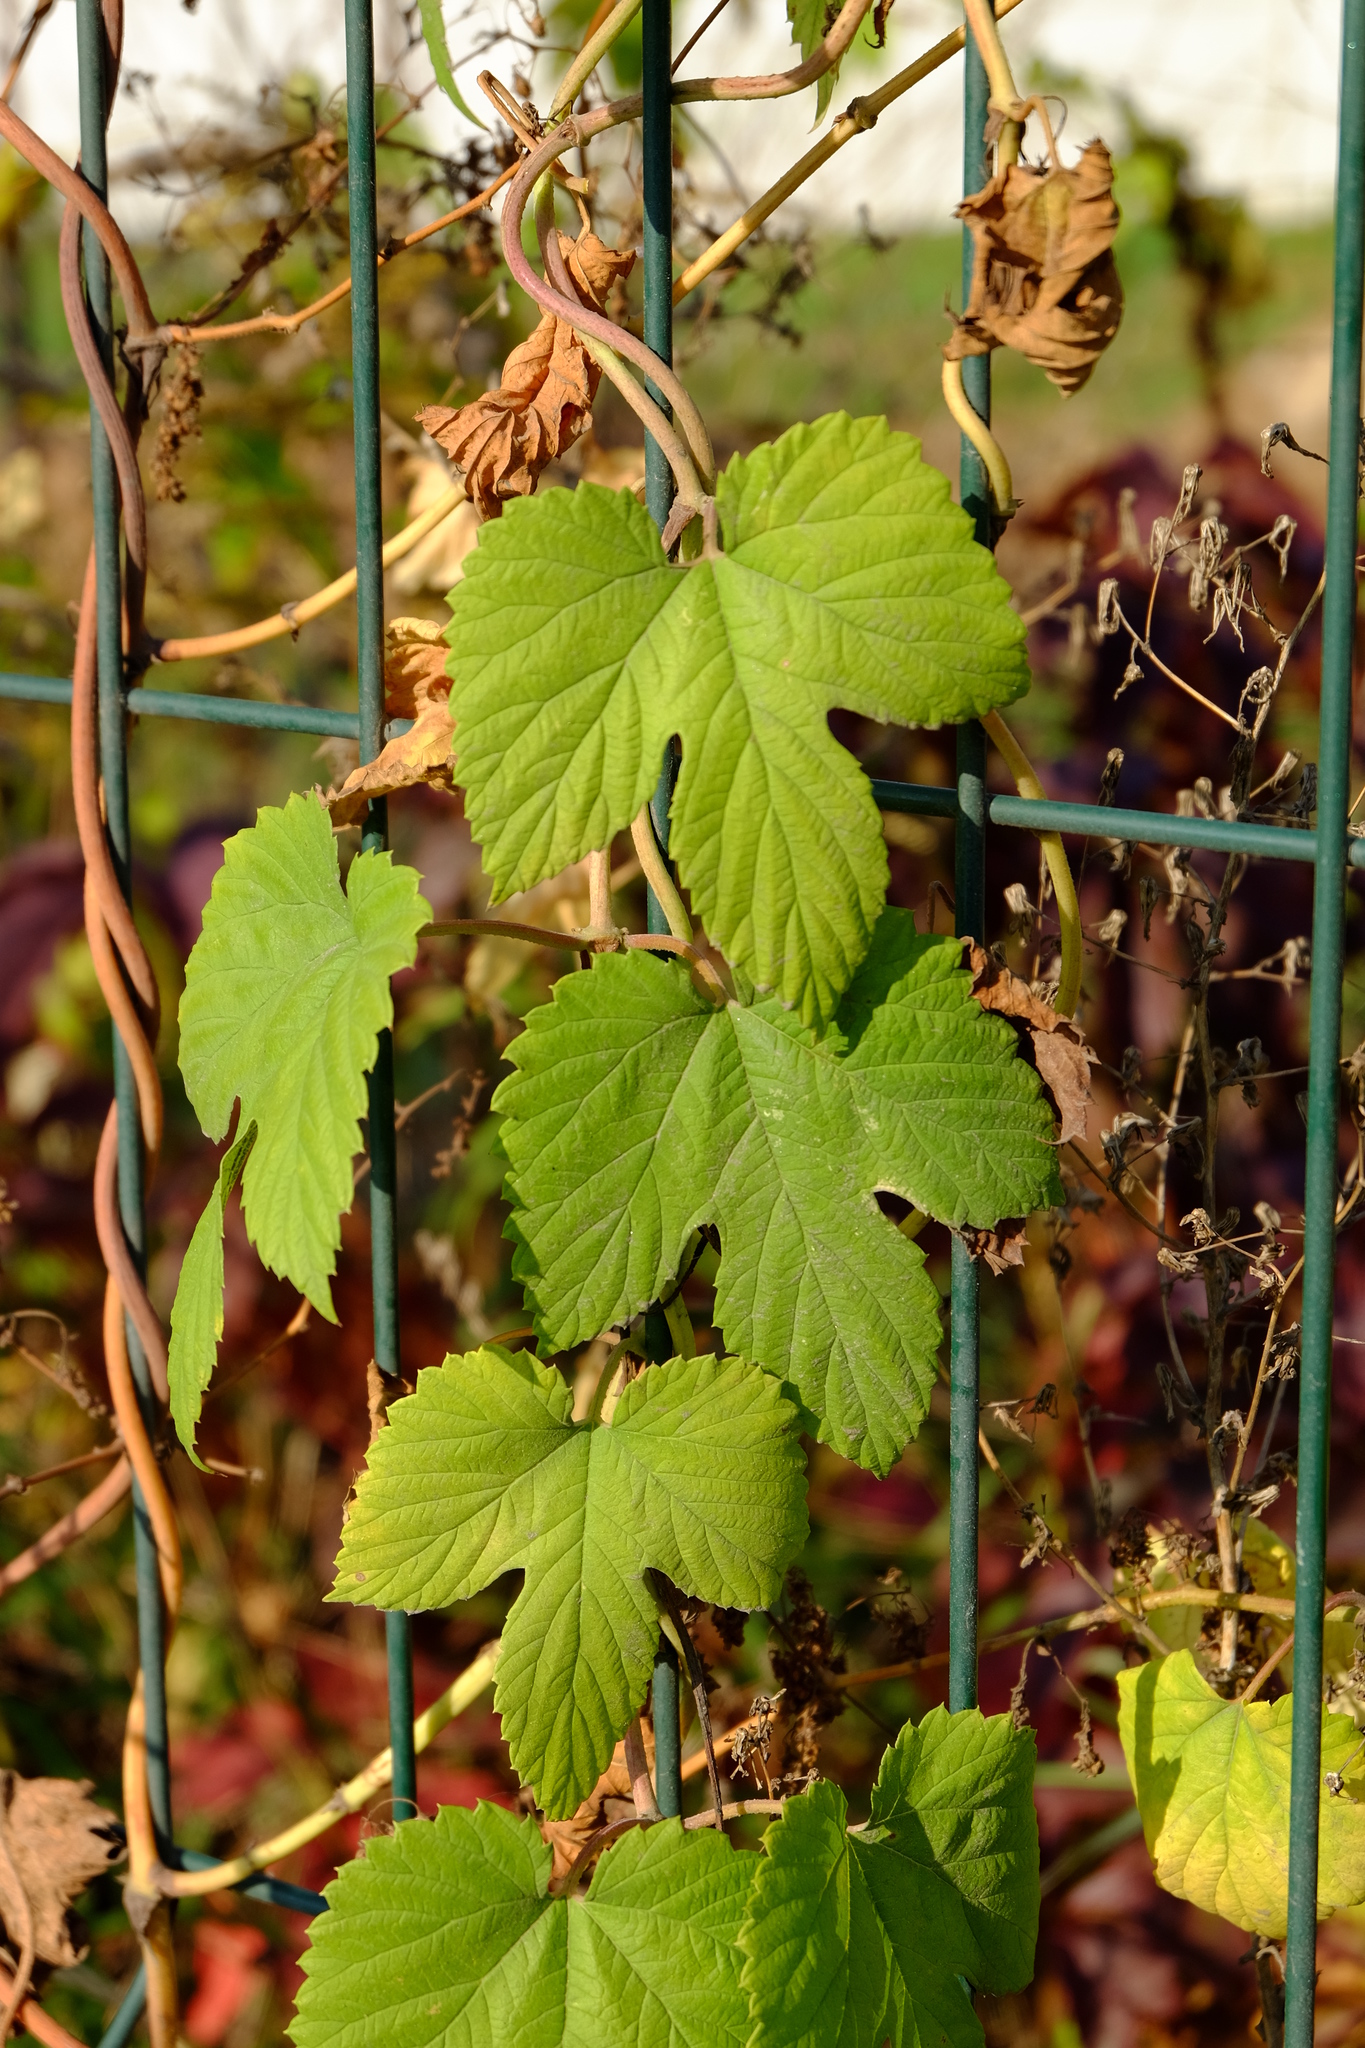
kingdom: Plantae
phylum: Tracheophyta
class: Magnoliopsida
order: Rosales
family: Cannabaceae
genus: Humulus
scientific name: Humulus lupulus
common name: Hop
